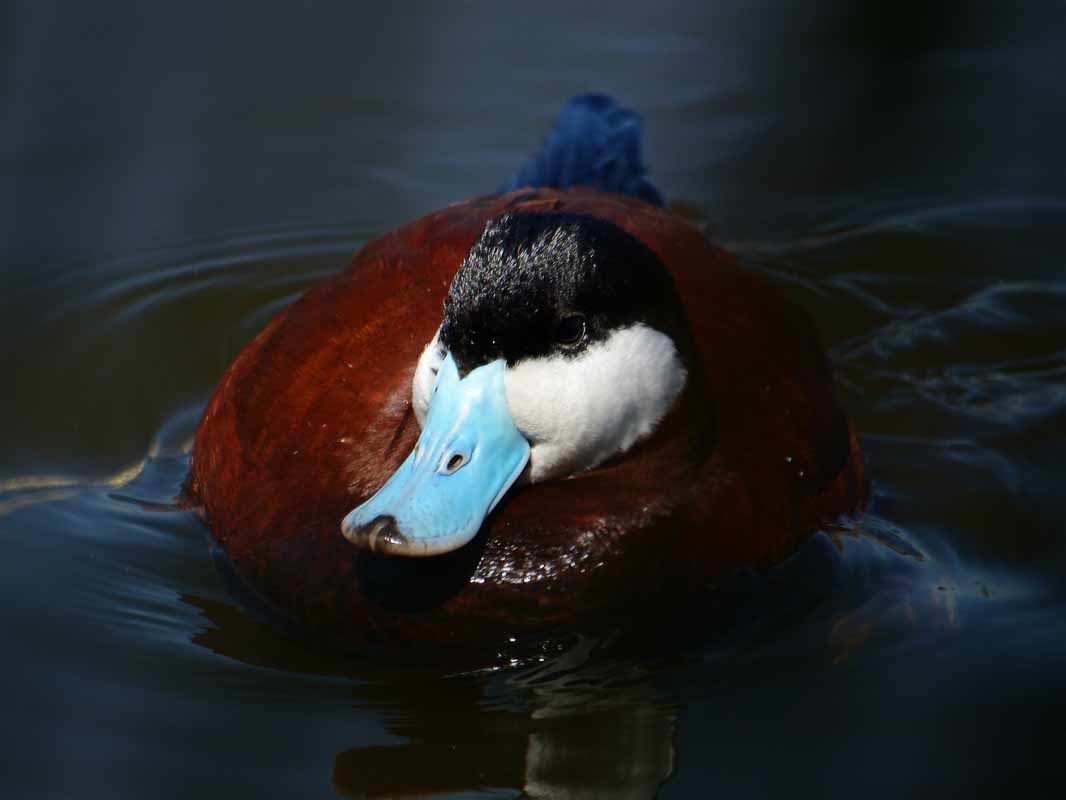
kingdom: Animalia
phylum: Chordata
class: Aves
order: Anseriformes
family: Anatidae
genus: Oxyura
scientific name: Oxyura jamaicensis
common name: Ruddy duck
